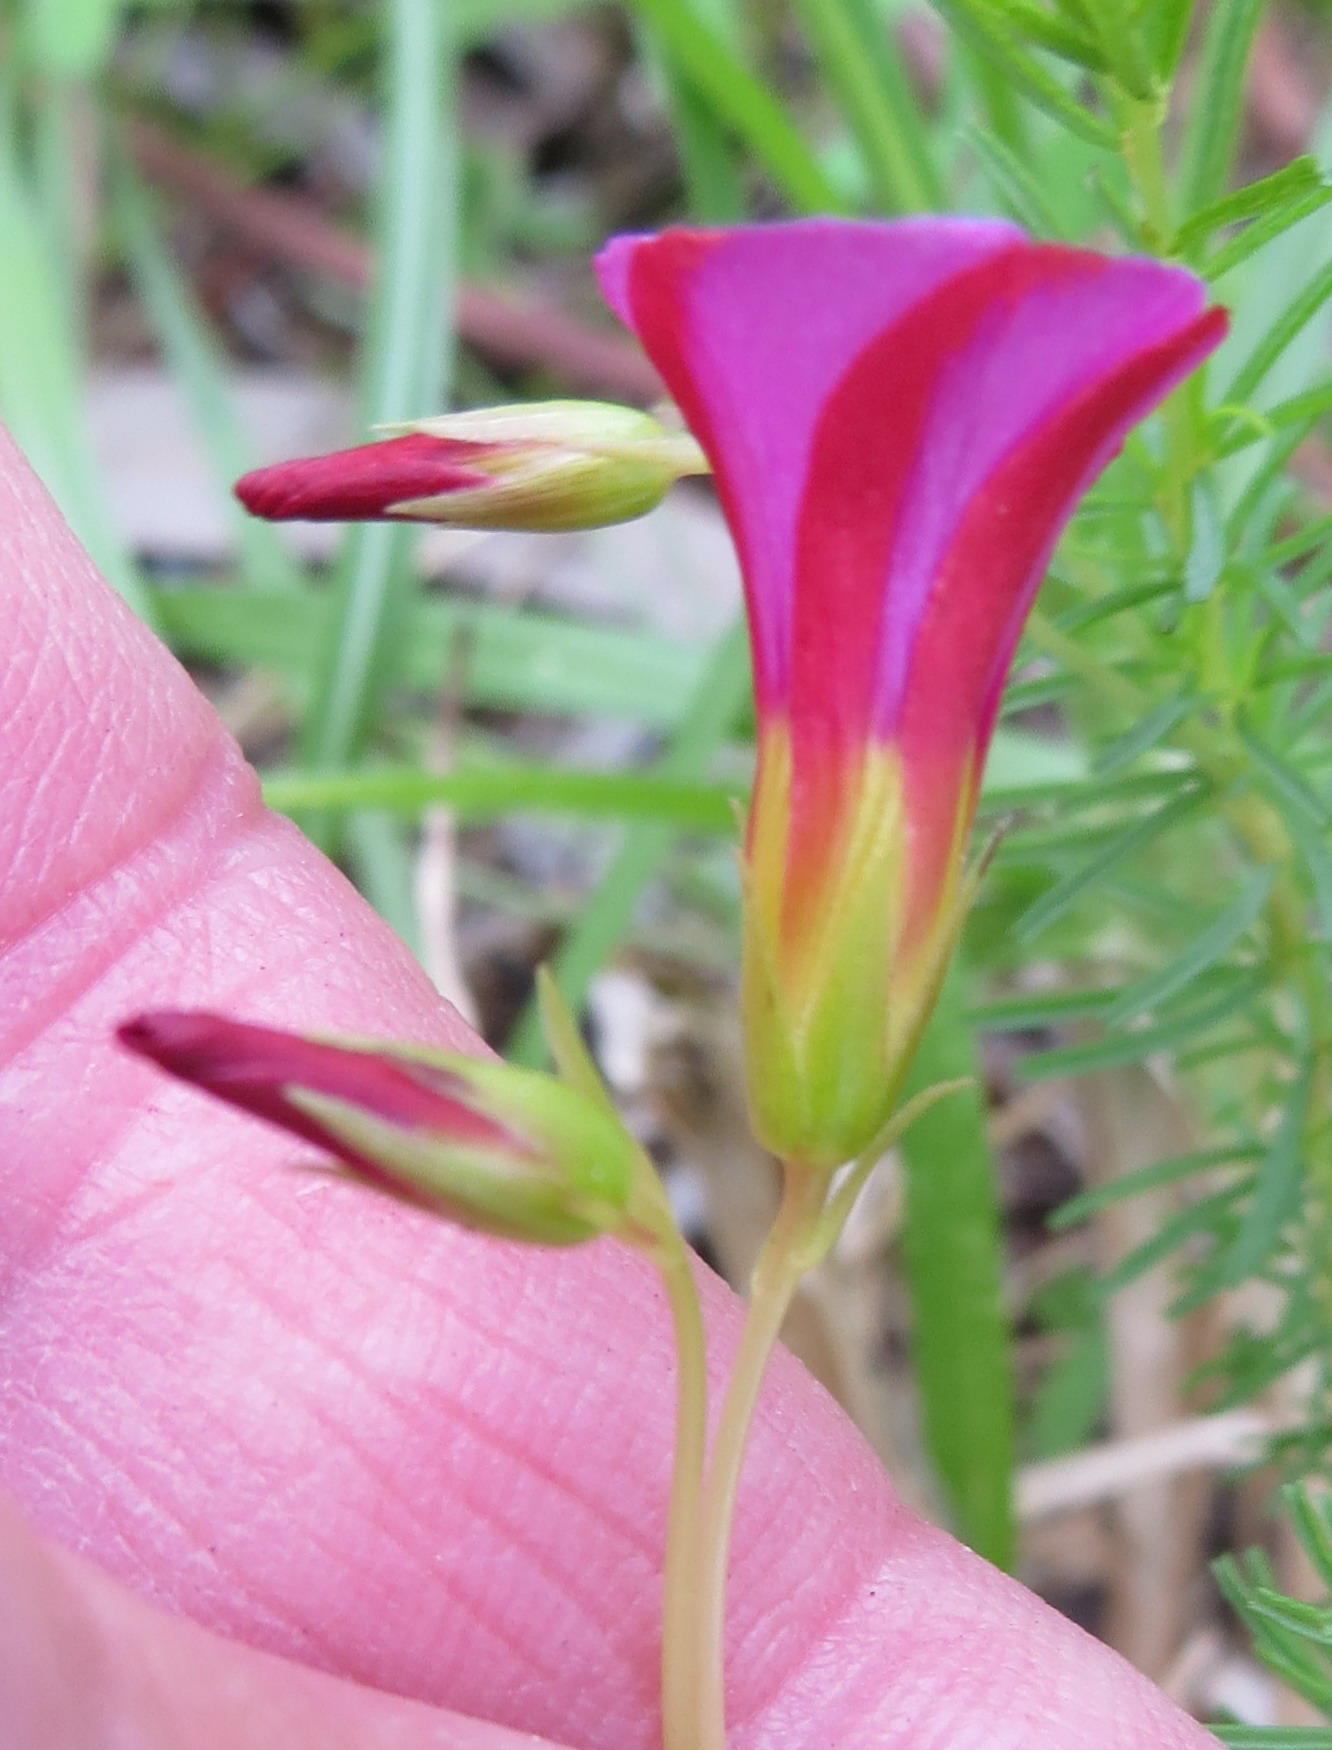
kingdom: Plantae
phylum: Tracheophyta
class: Magnoliopsida
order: Oxalidales
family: Oxalidaceae
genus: Oxalis
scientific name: Oxalis confertifolia
